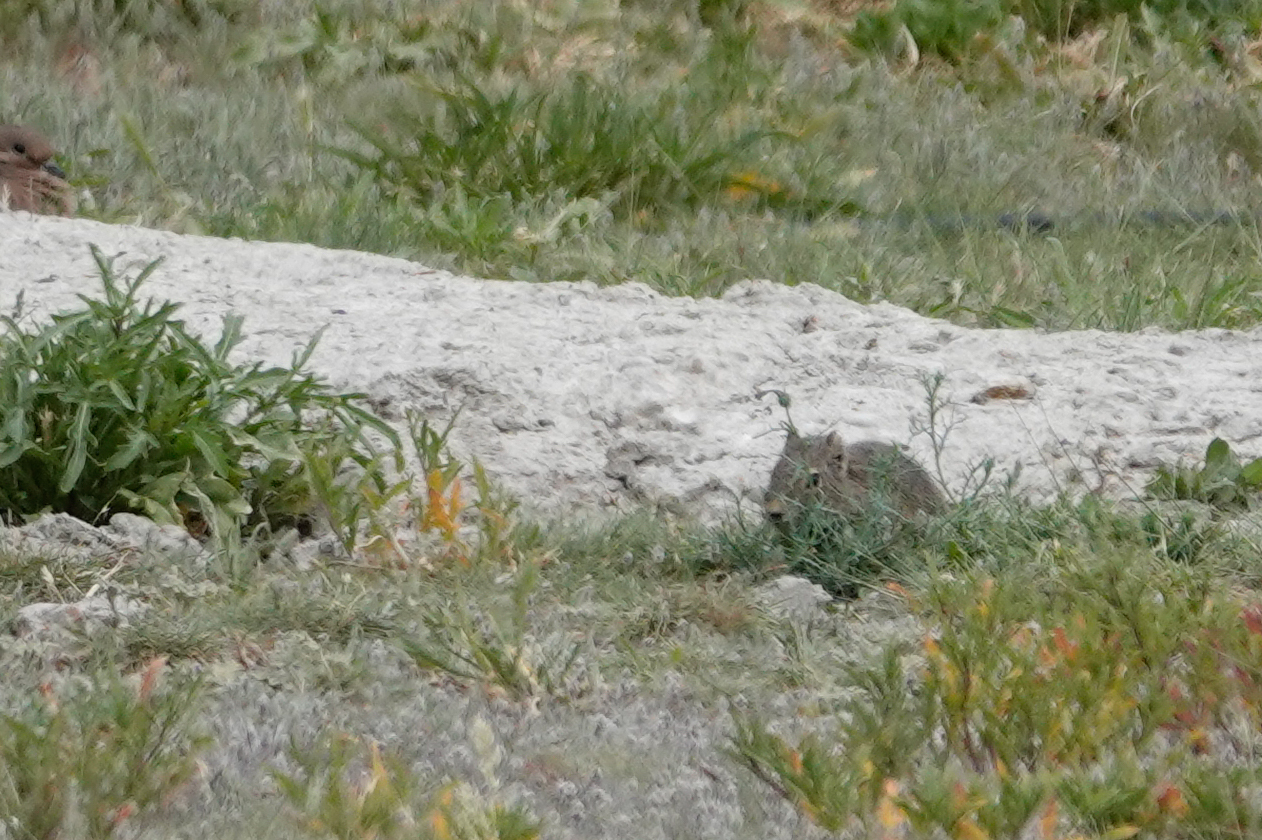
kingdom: Animalia
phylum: Chordata
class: Mammalia
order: Rodentia
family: Caviidae
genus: Microcavia
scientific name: Microcavia australis
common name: Southern mountain cavy
